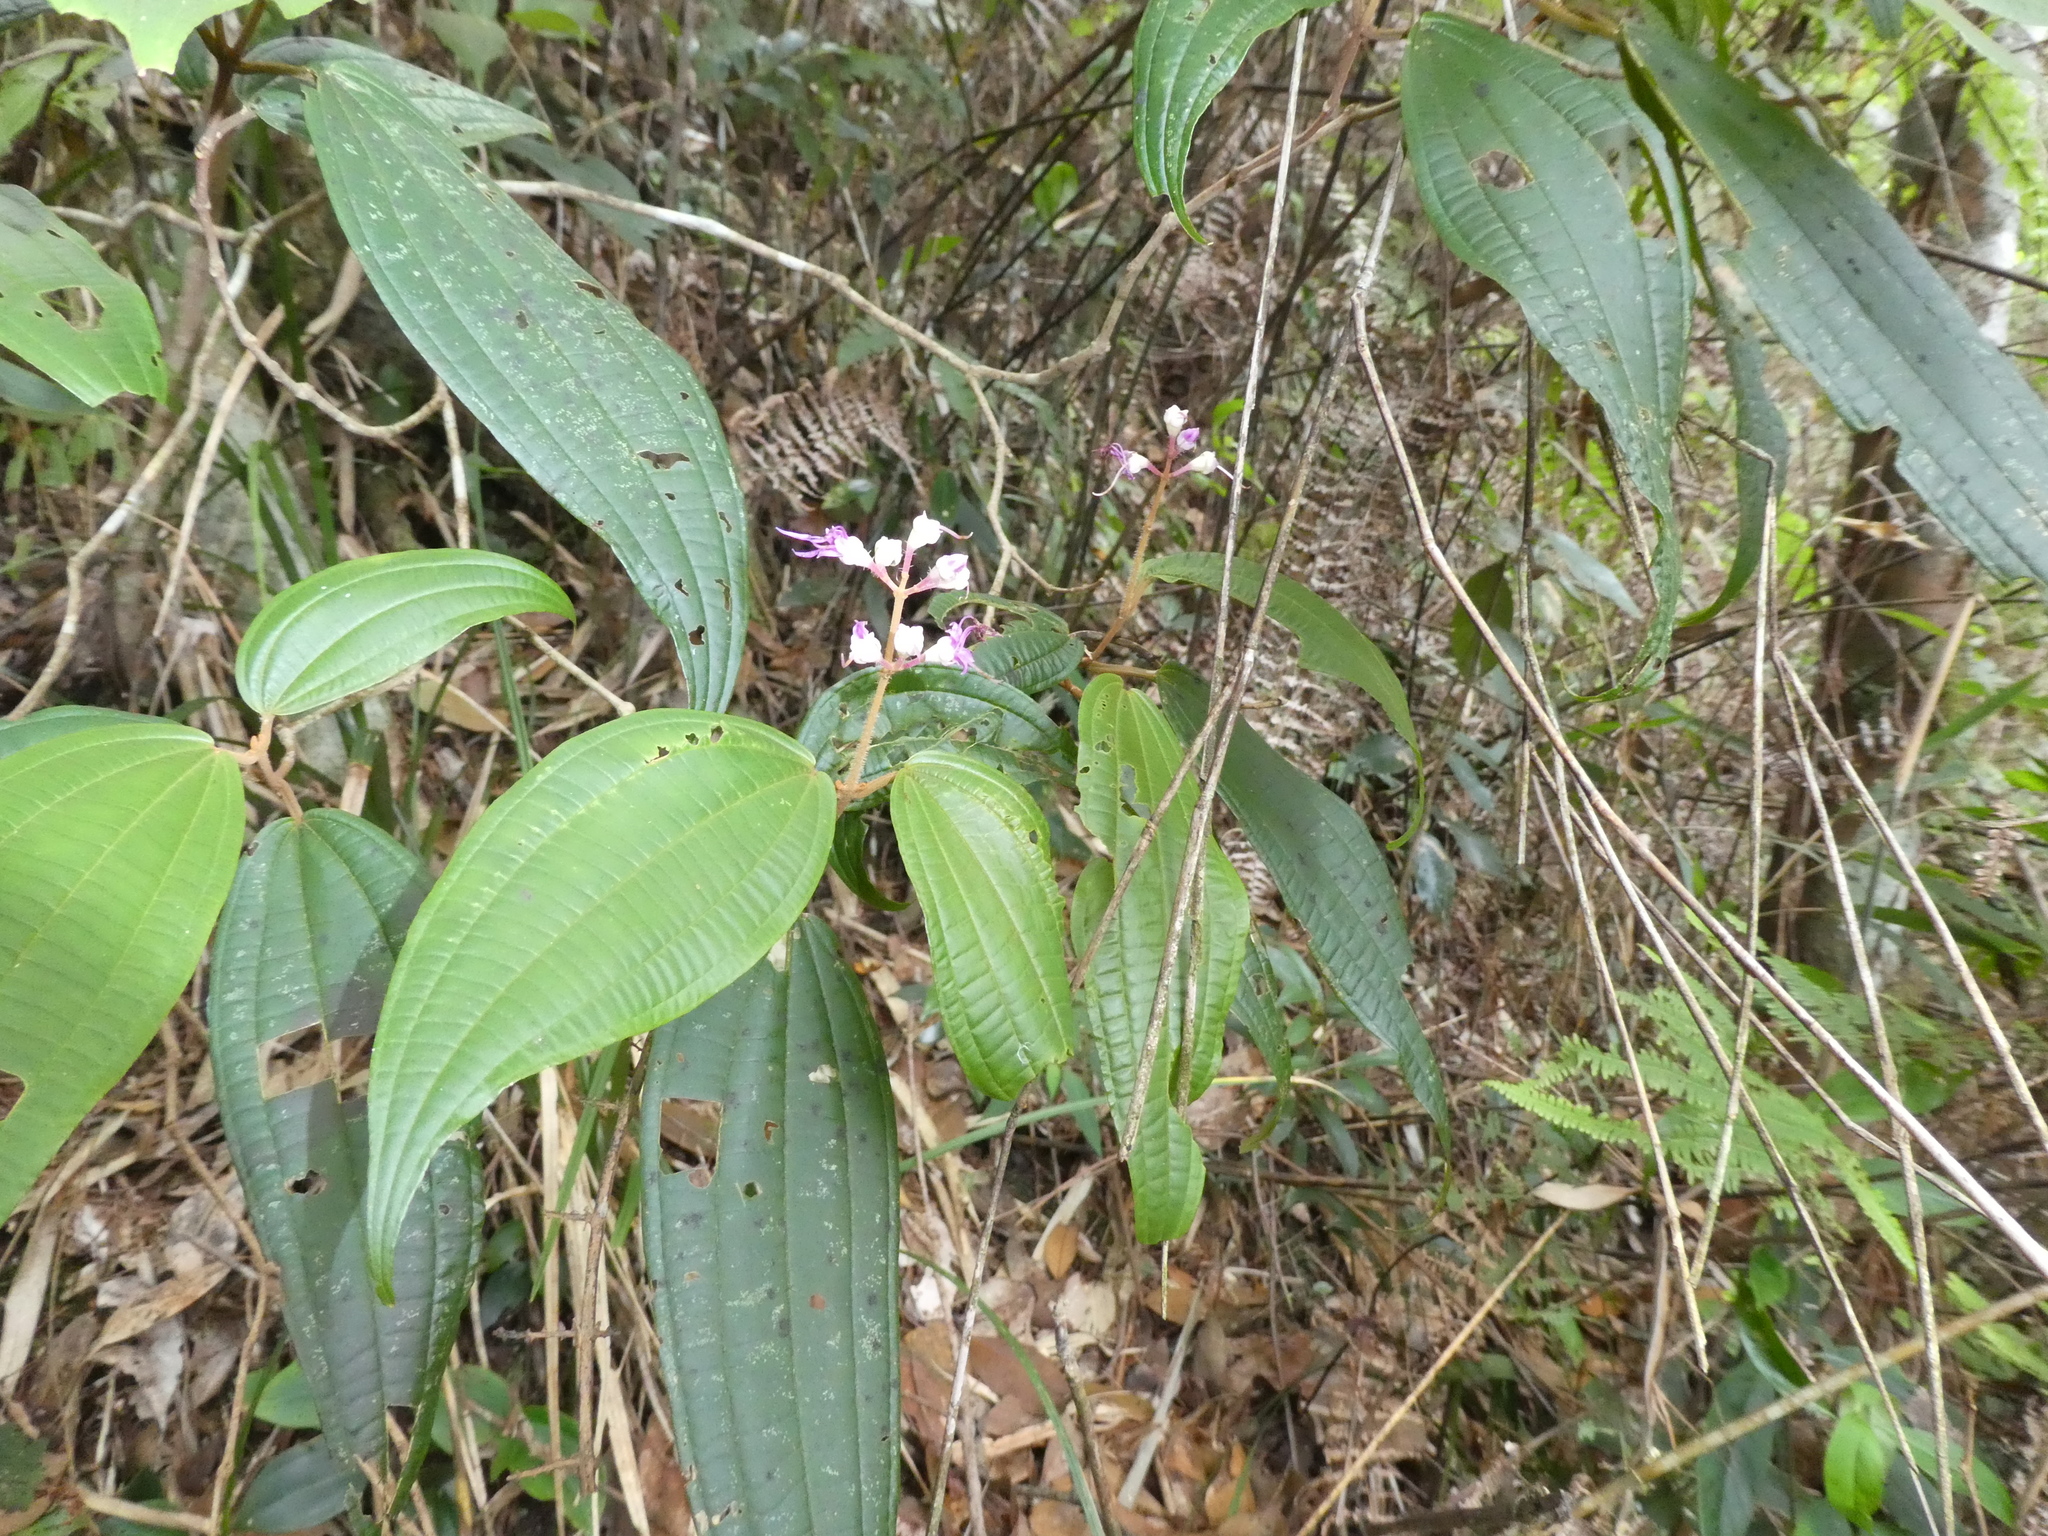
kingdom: Plantae
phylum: Tracheophyta
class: Magnoliopsida
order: Myrtales
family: Melastomataceae
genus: Blastus
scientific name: Blastus pauciflorus
